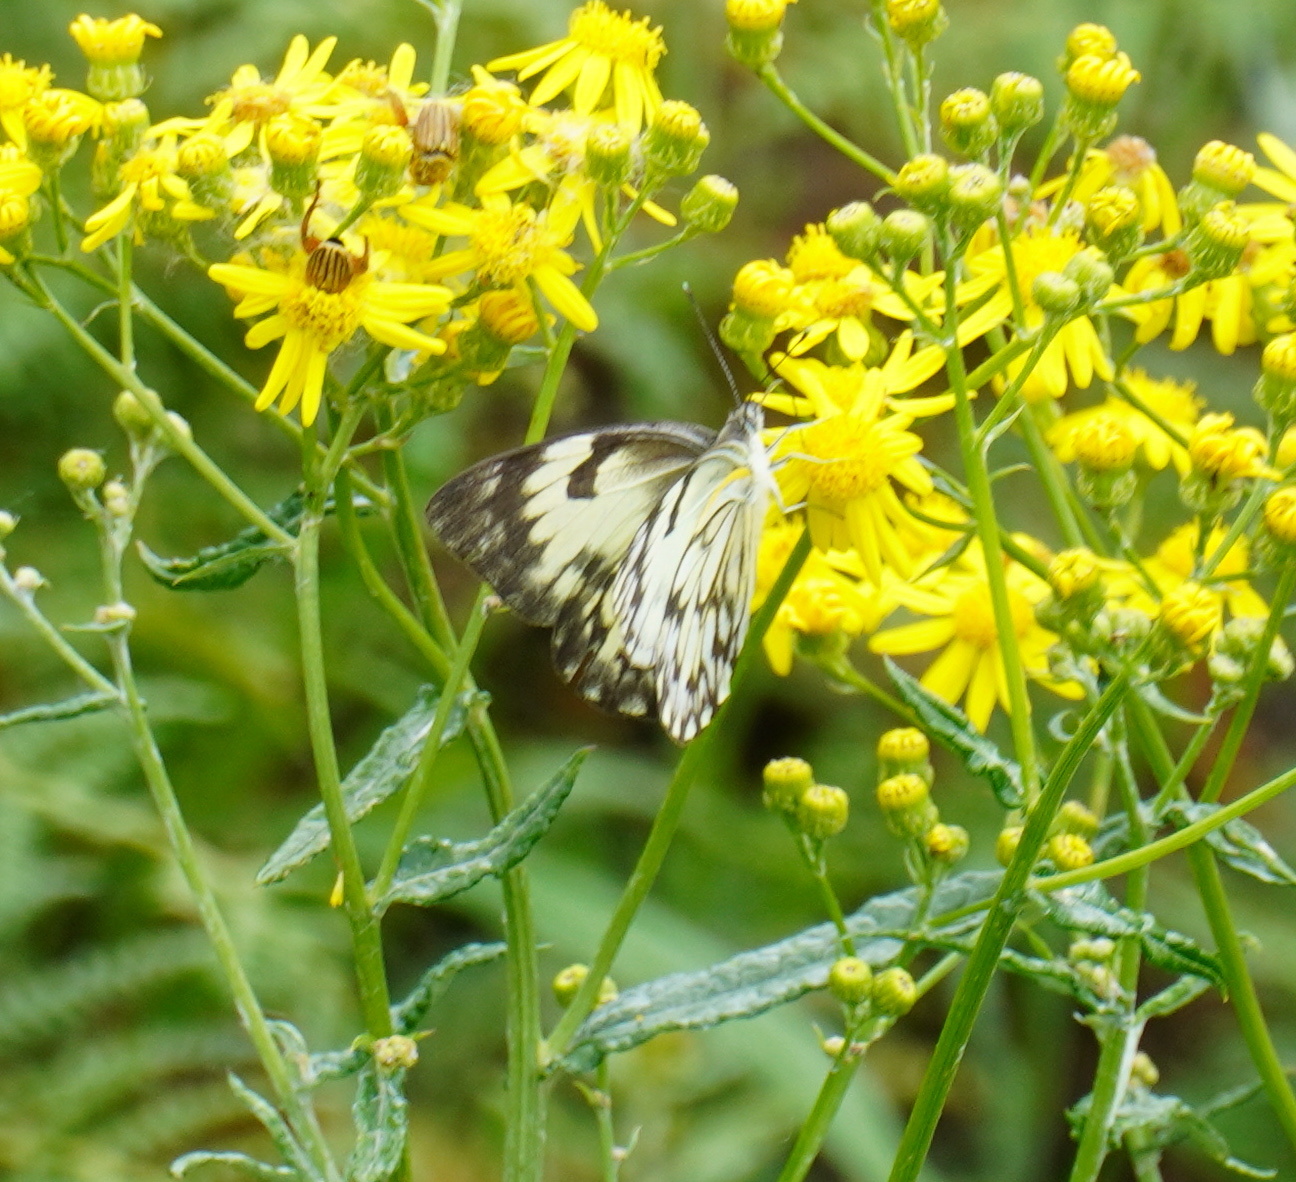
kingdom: Animalia
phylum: Arthropoda
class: Insecta
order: Lepidoptera
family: Pieridae
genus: Belenois
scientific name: Belenois gidica
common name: Pointed caper white
